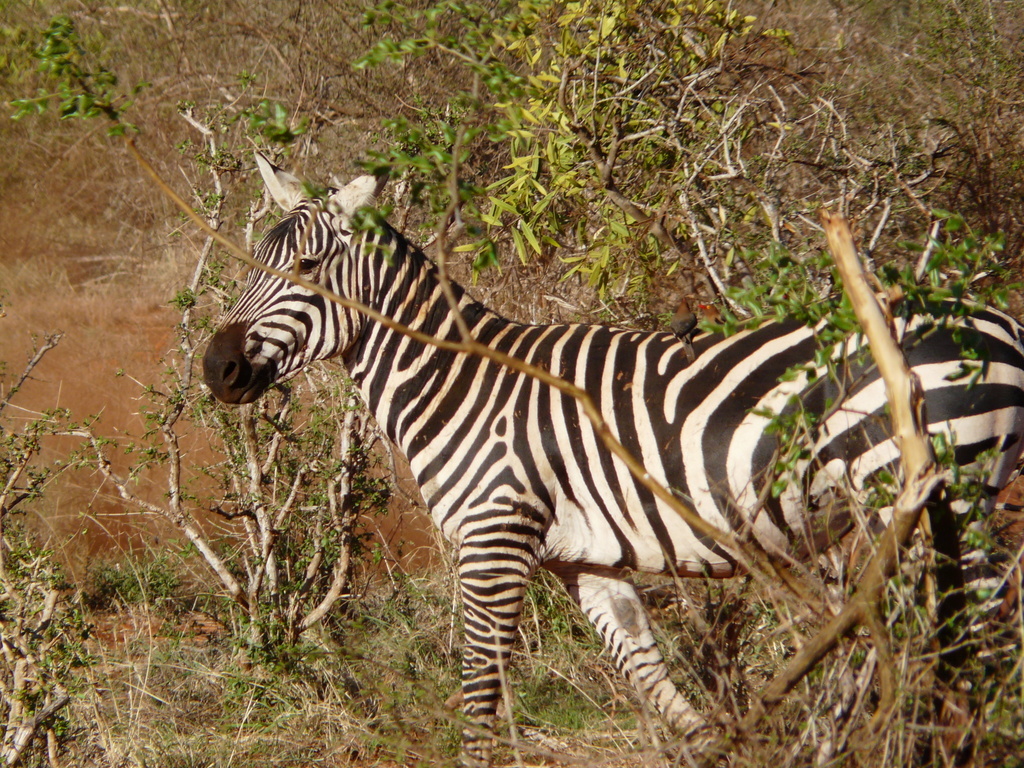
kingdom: Animalia
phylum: Chordata
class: Mammalia
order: Perissodactyla
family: Equidae
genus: Equus
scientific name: Equus quagga
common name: Plains zebra
